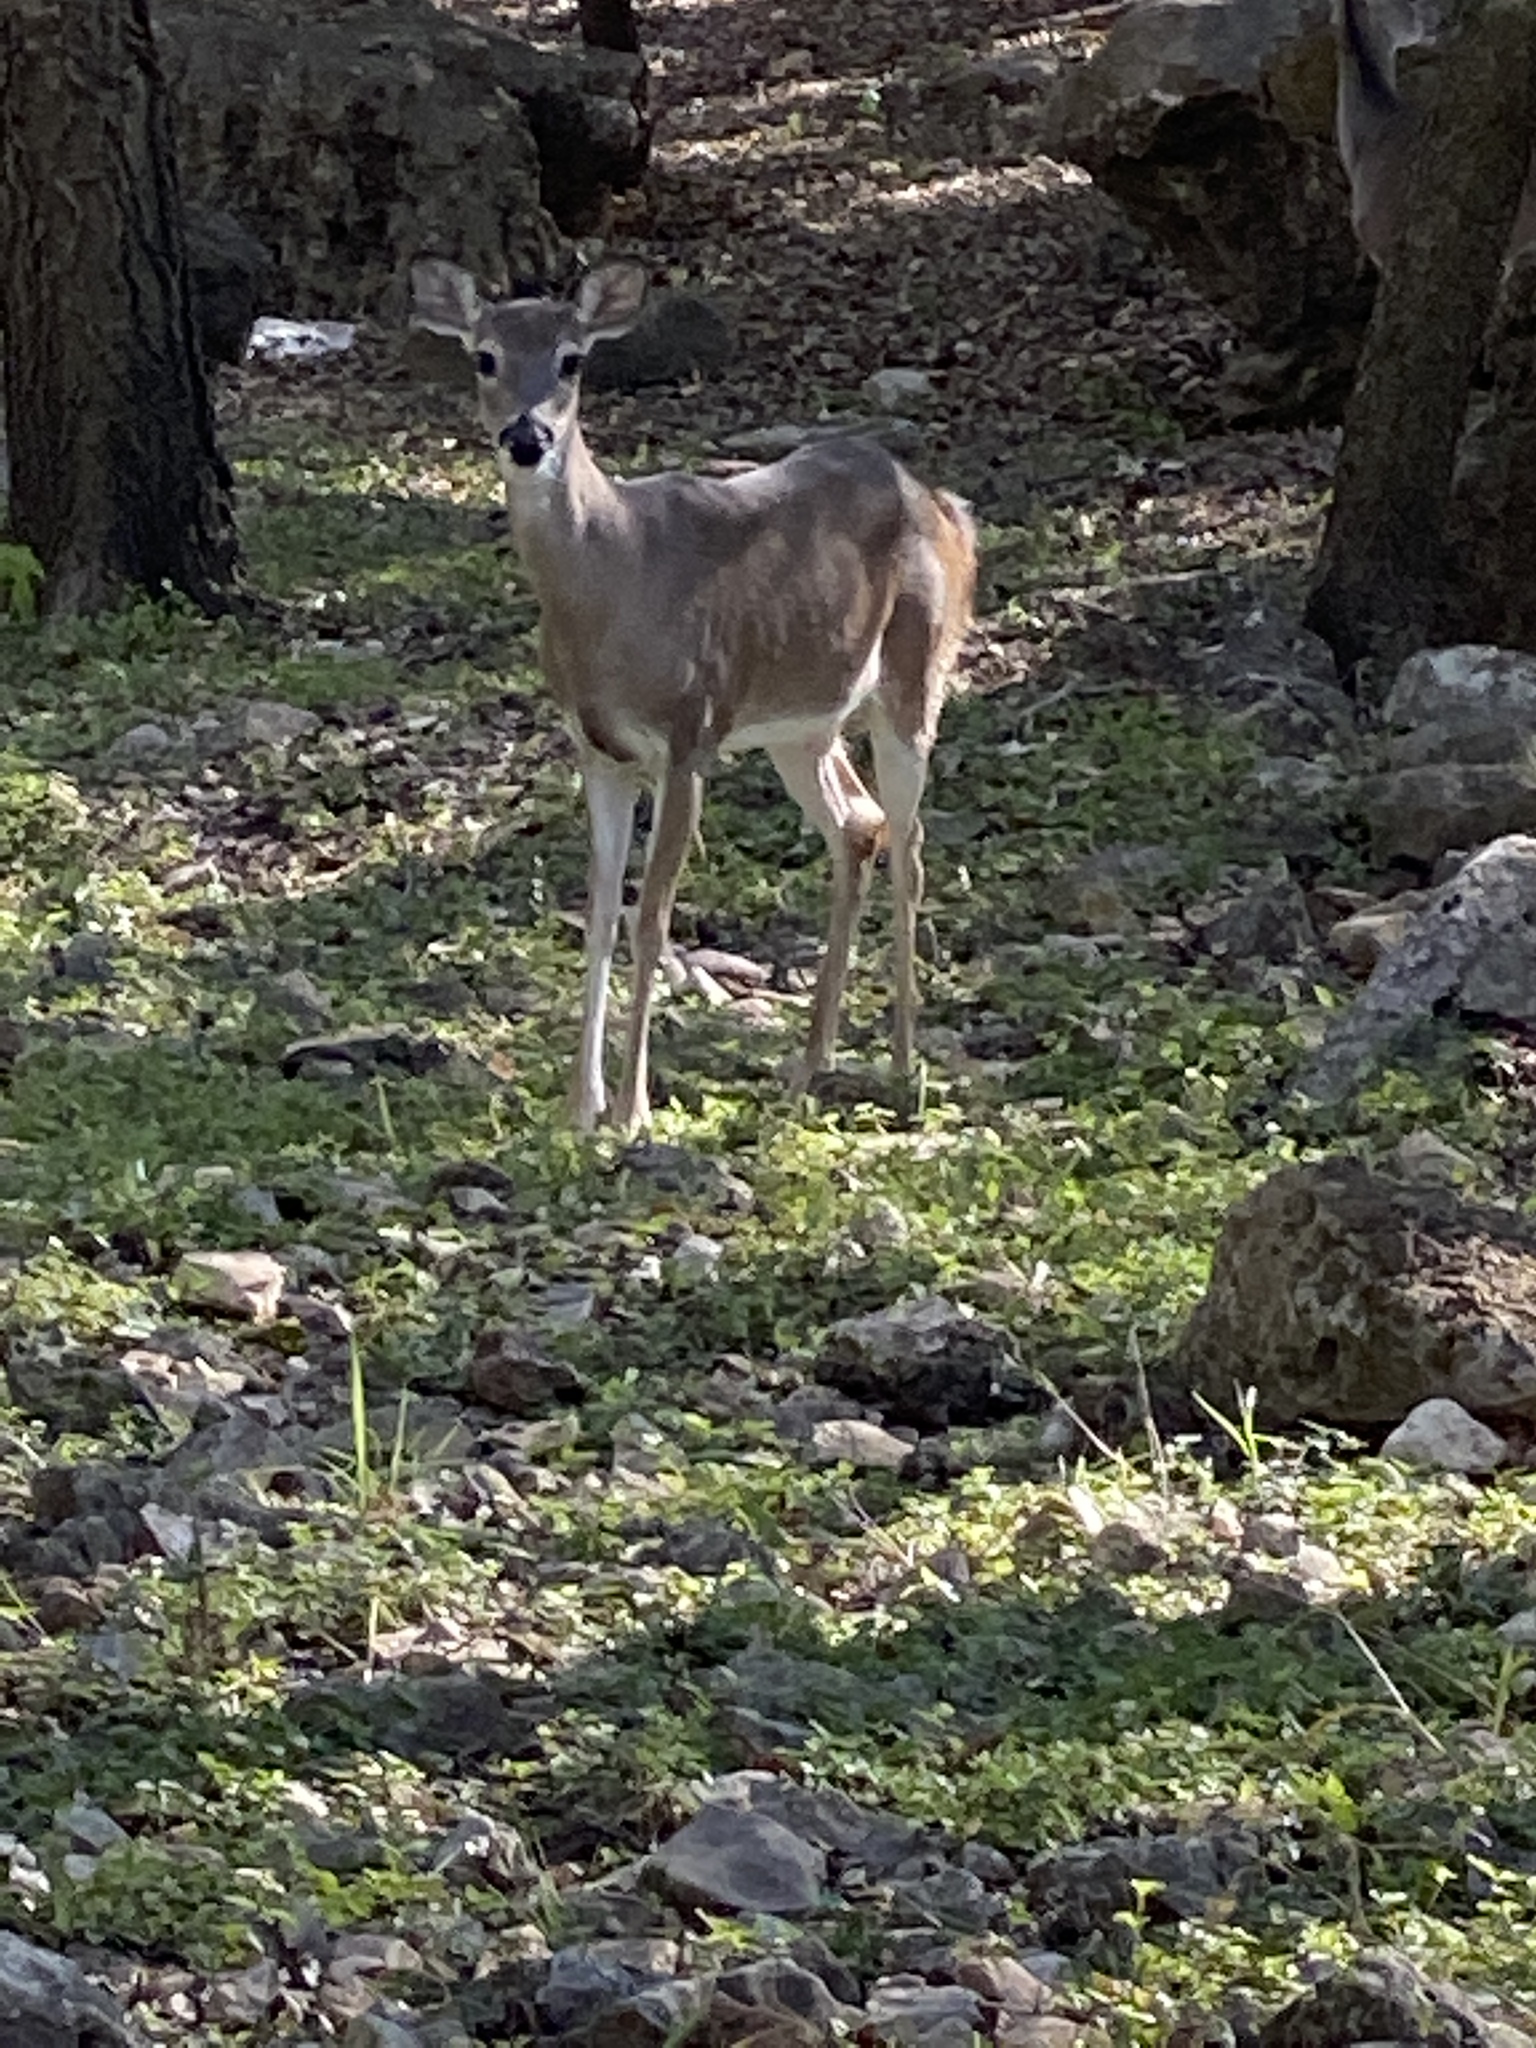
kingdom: Animalia
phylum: Chordata
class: Mammalia
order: Artiodactyla
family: Cervidae
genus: Odocoileus
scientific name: Odocoileus virginianus
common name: White-tailed deer
